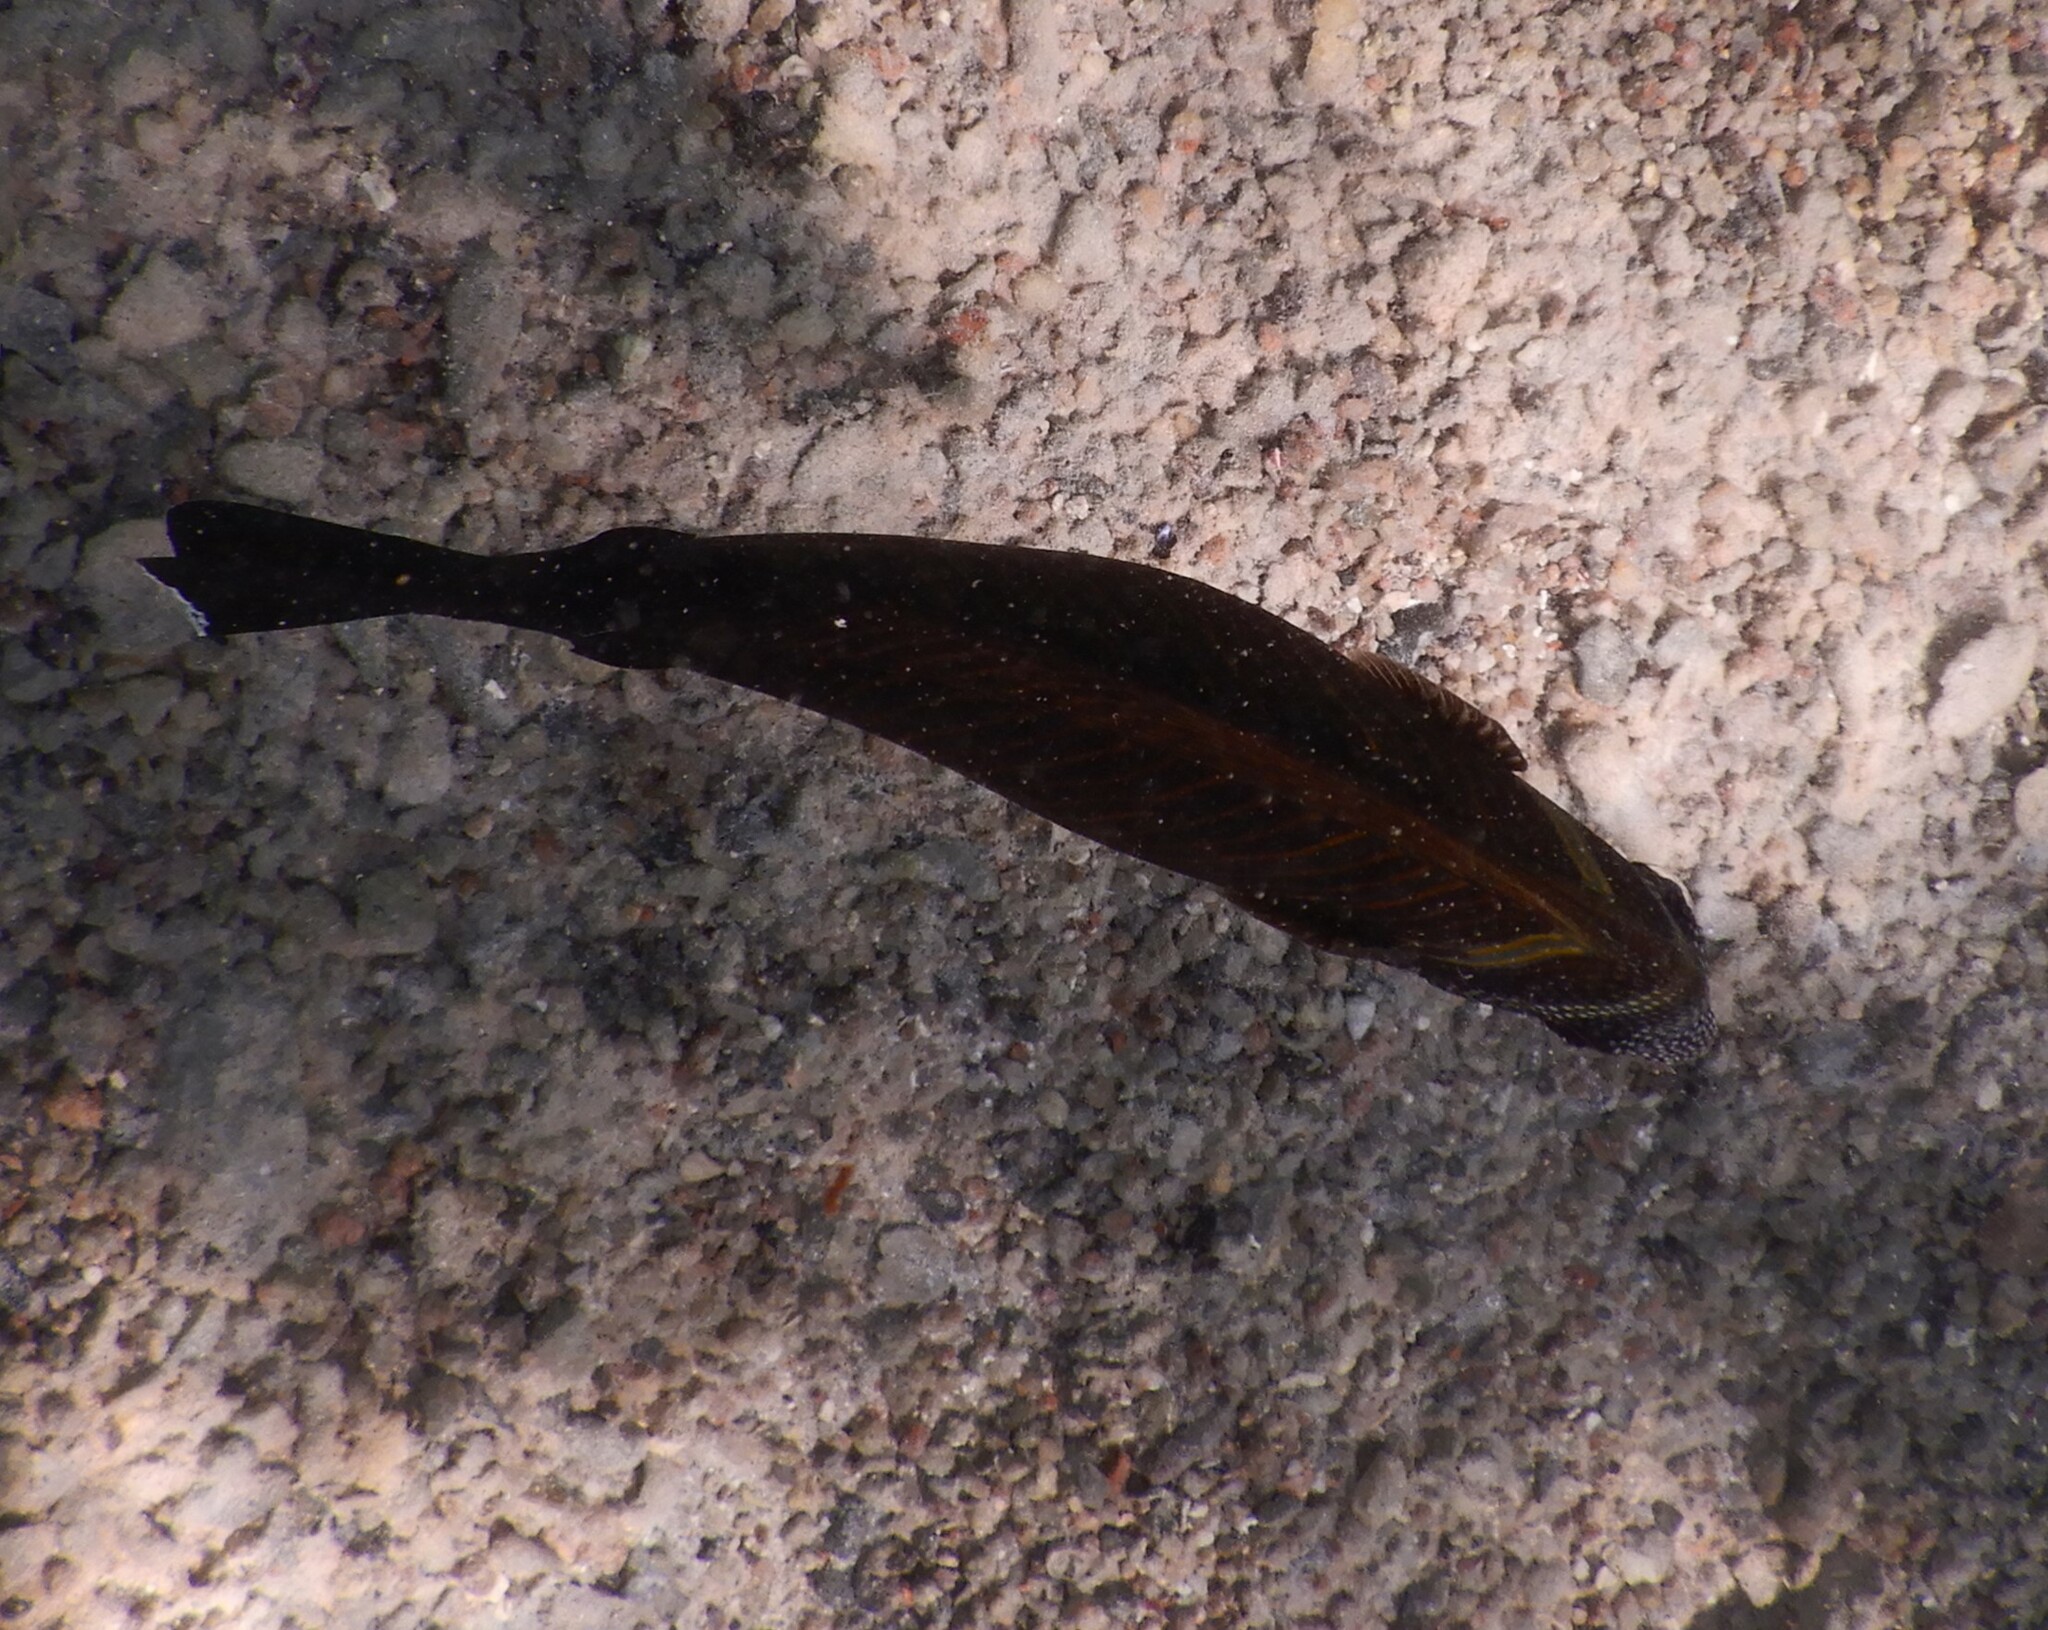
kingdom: Animalia
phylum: Chordata
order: Perciformes
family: Acanthuridae
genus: Zebrasoma
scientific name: Zebrasoma desjardinii
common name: Desjardin's sailfin tang
